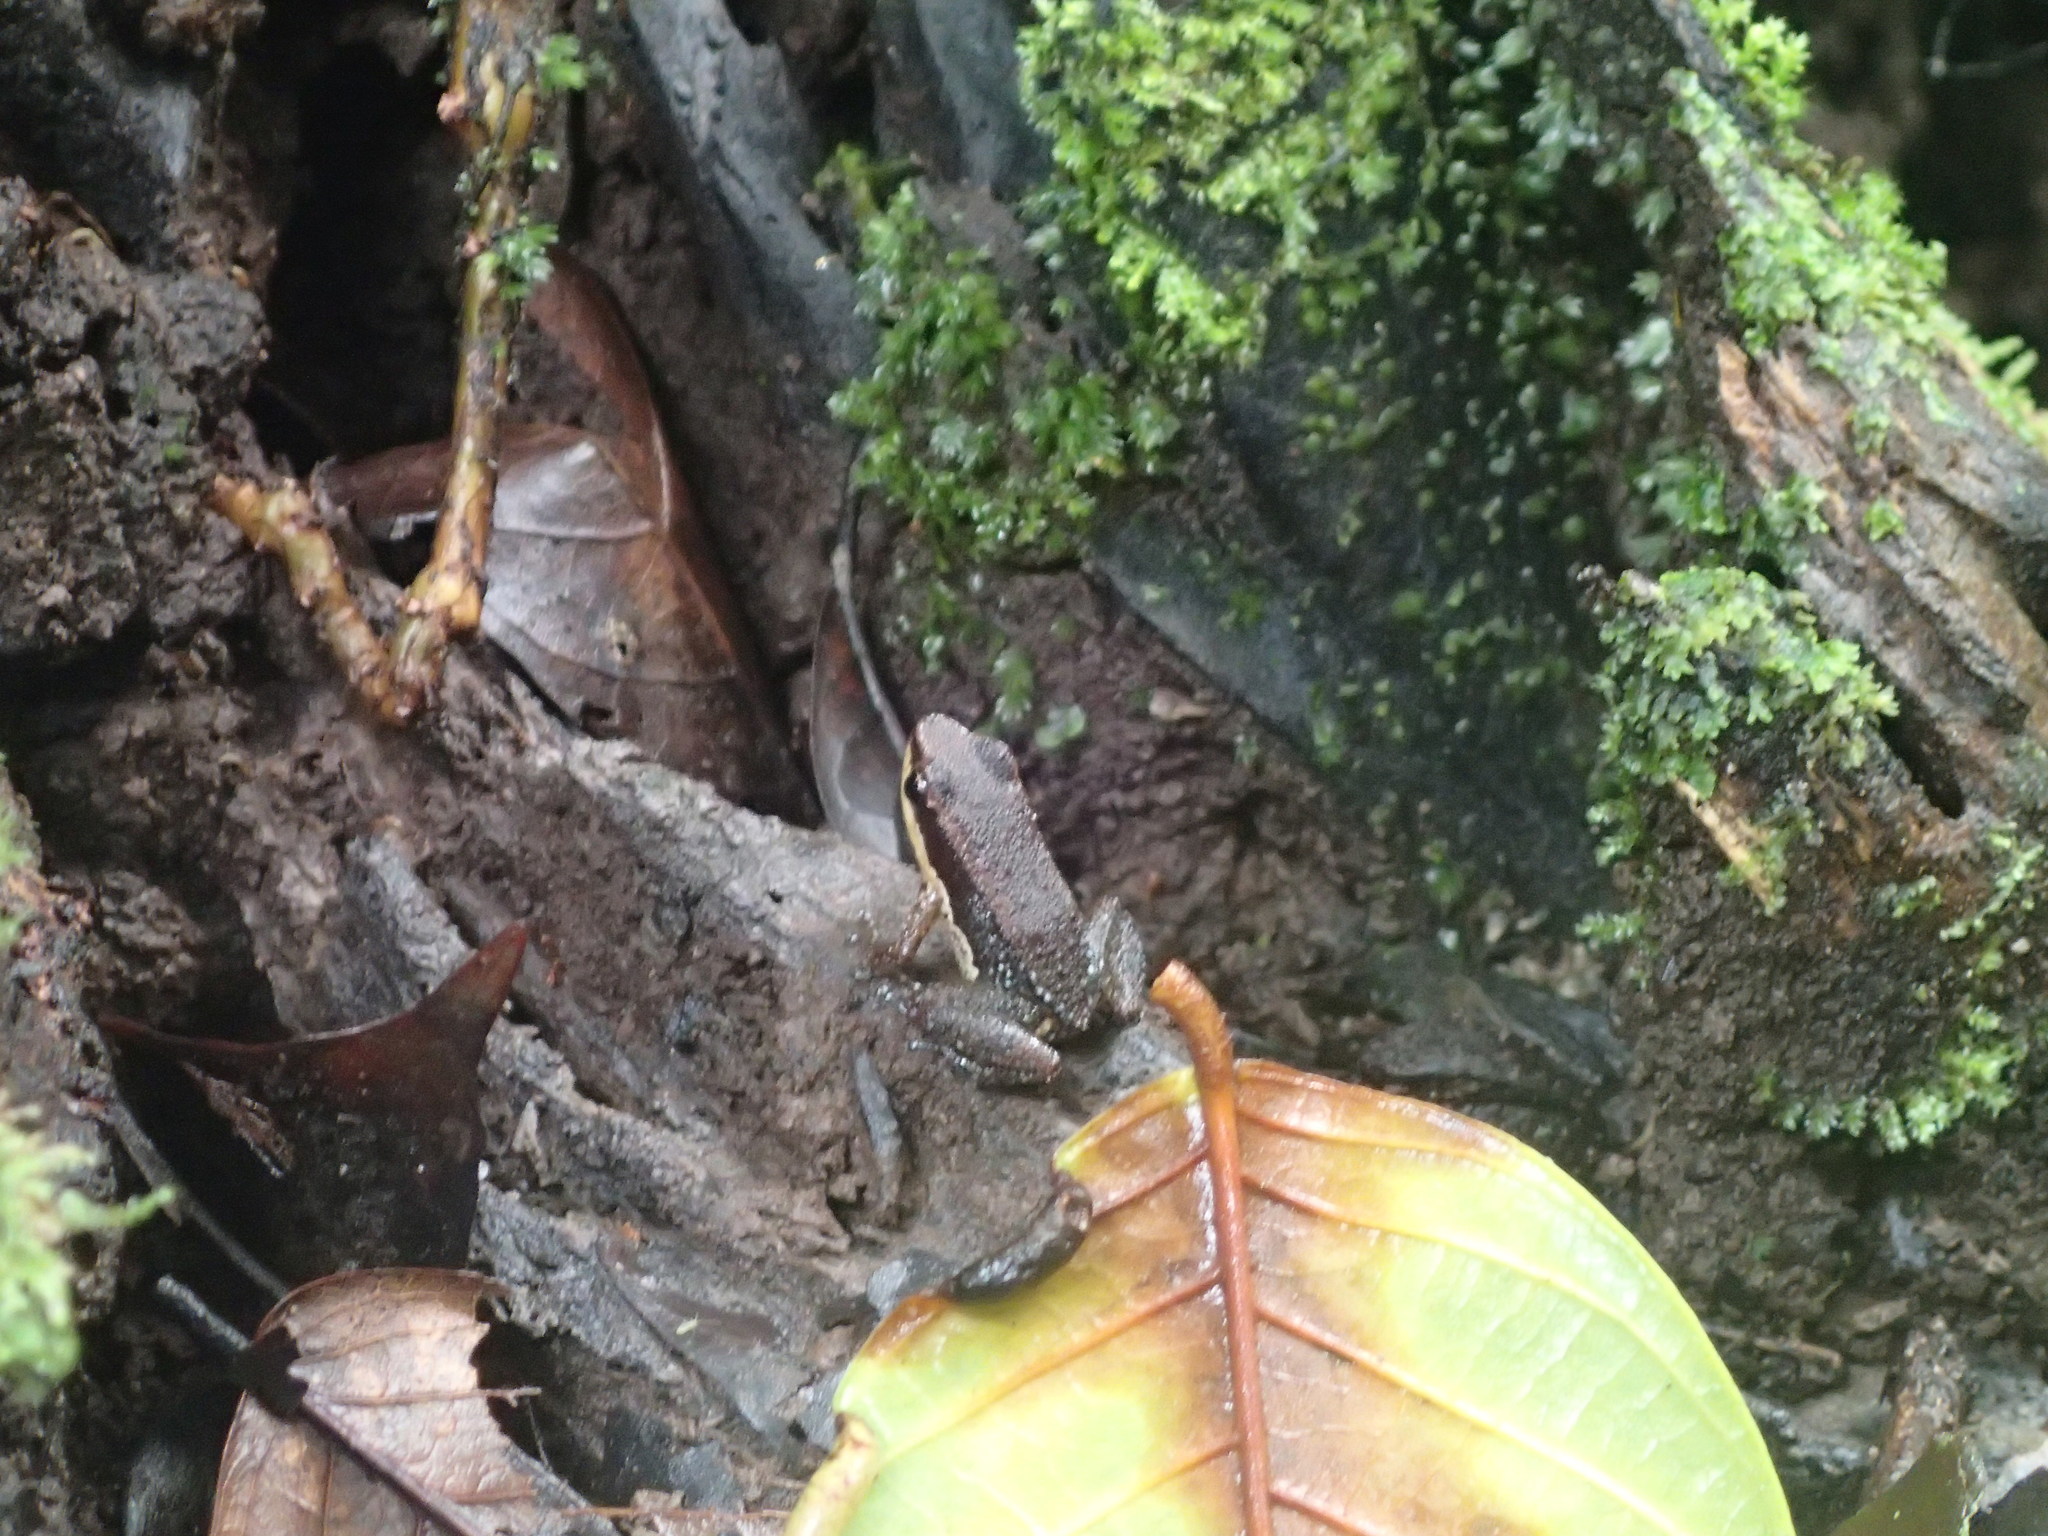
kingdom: Animalia
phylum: Chordata
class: Amphibia
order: Anura
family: Aromobatidae
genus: Allobates
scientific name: Allobates insperatus
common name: Santa cecilia rocket frog
